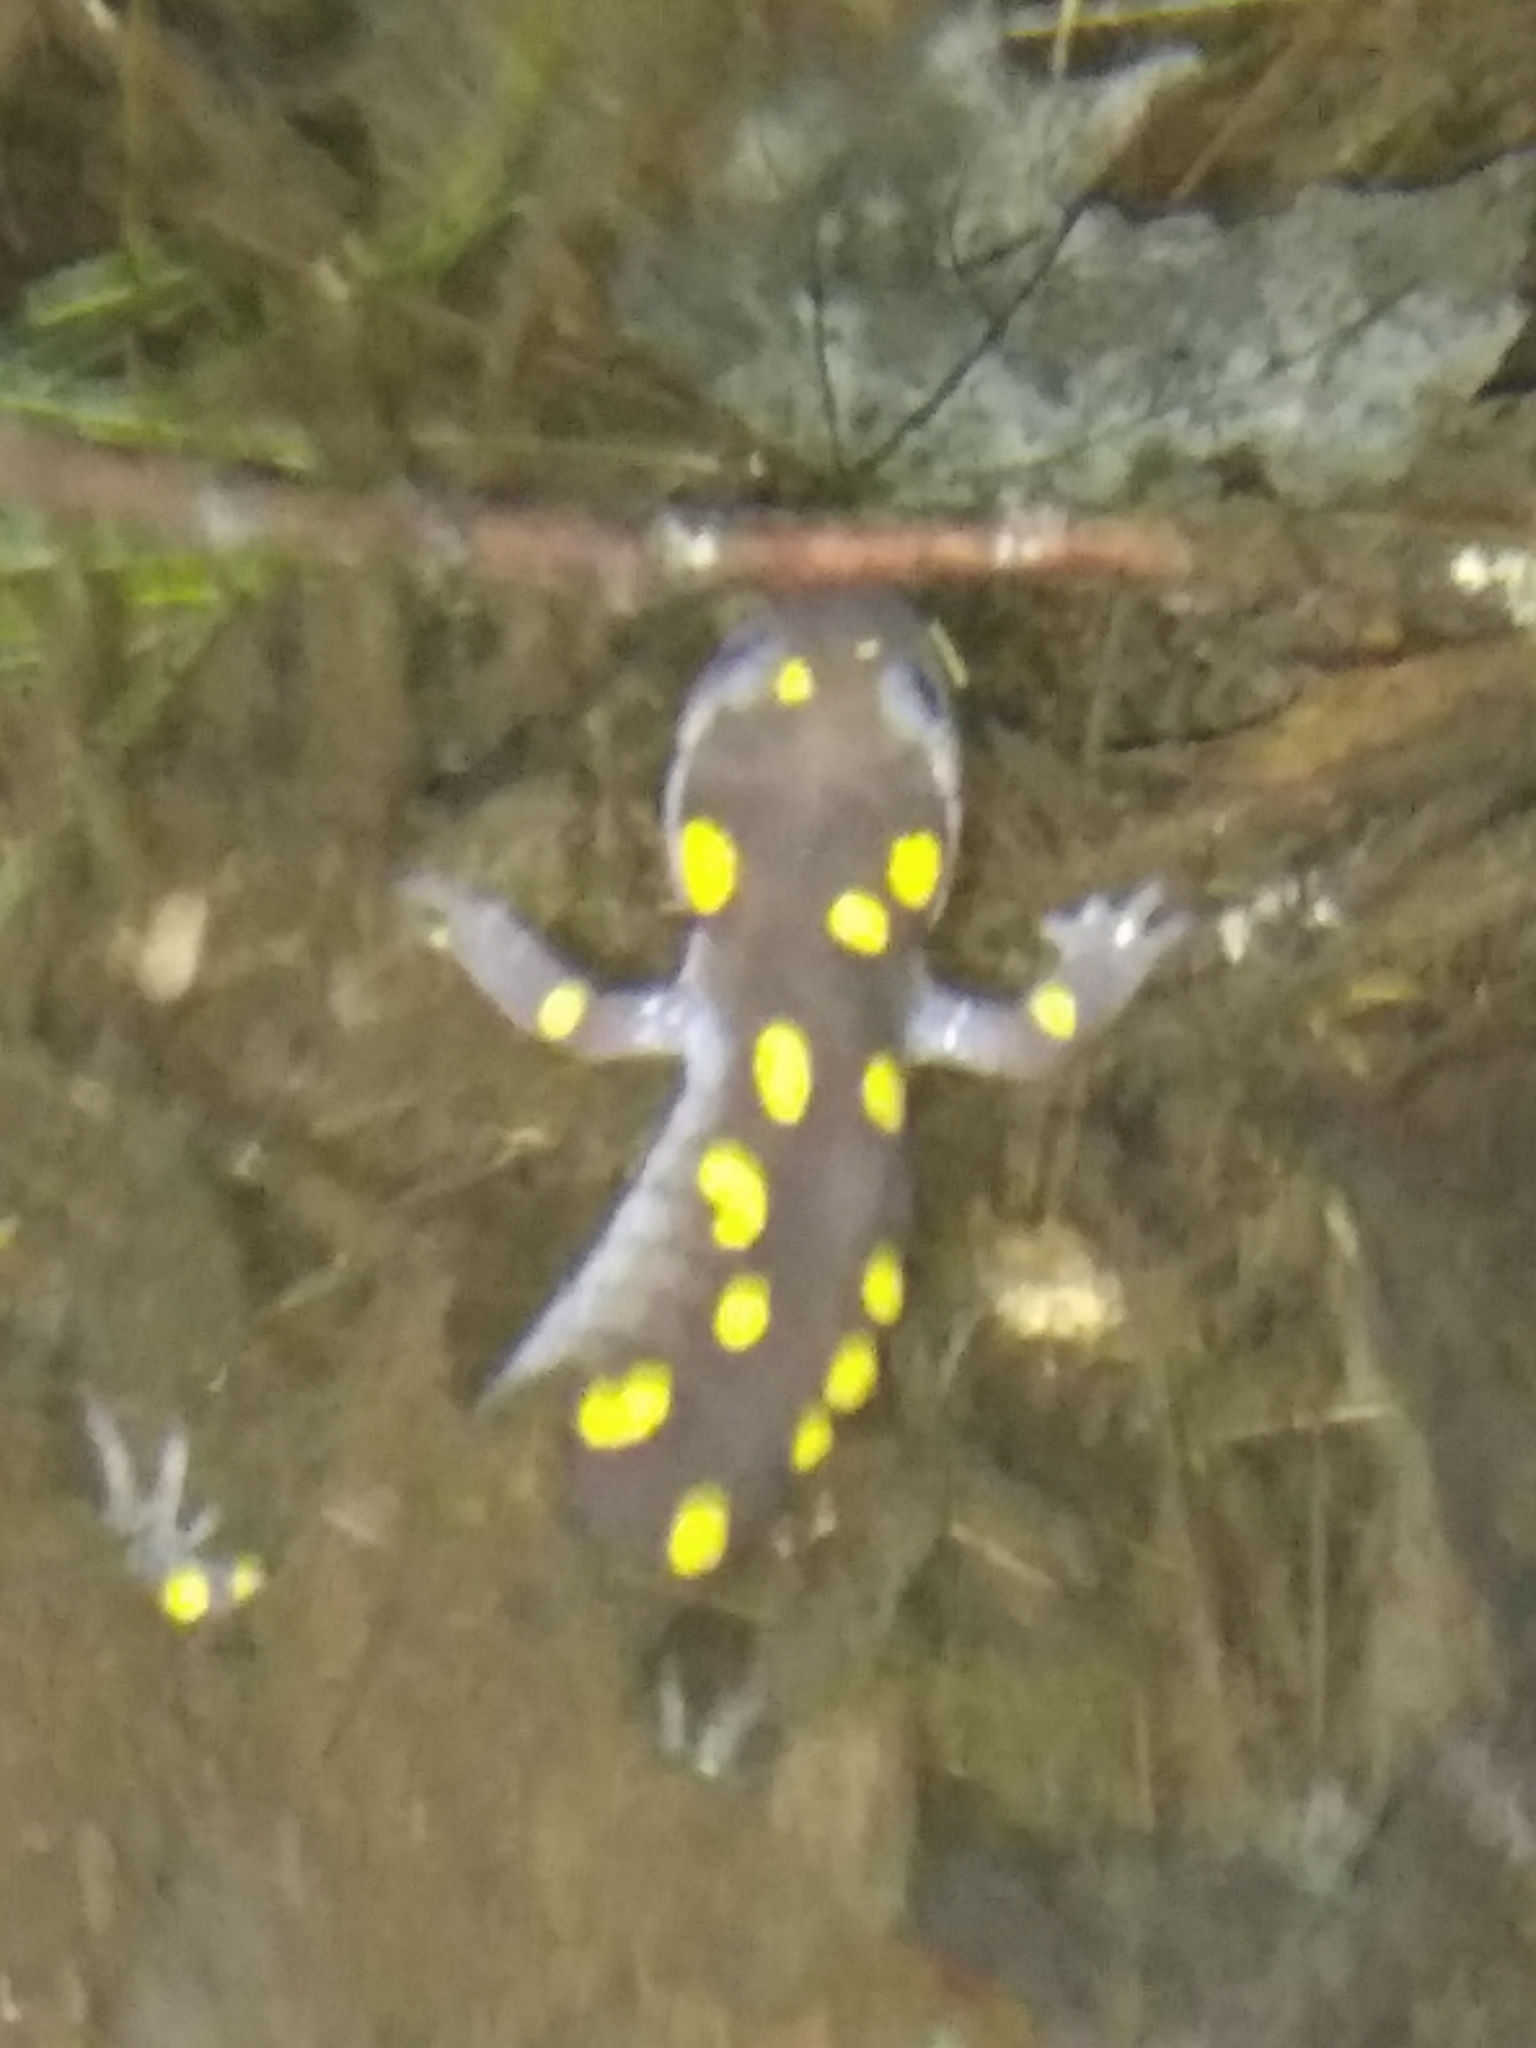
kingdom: Animalia
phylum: Chordata
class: Amphibia
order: Caudata
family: Ambystomatidae
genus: Ambystoma
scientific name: Ambystoma maculatum
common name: Spotted salamander
